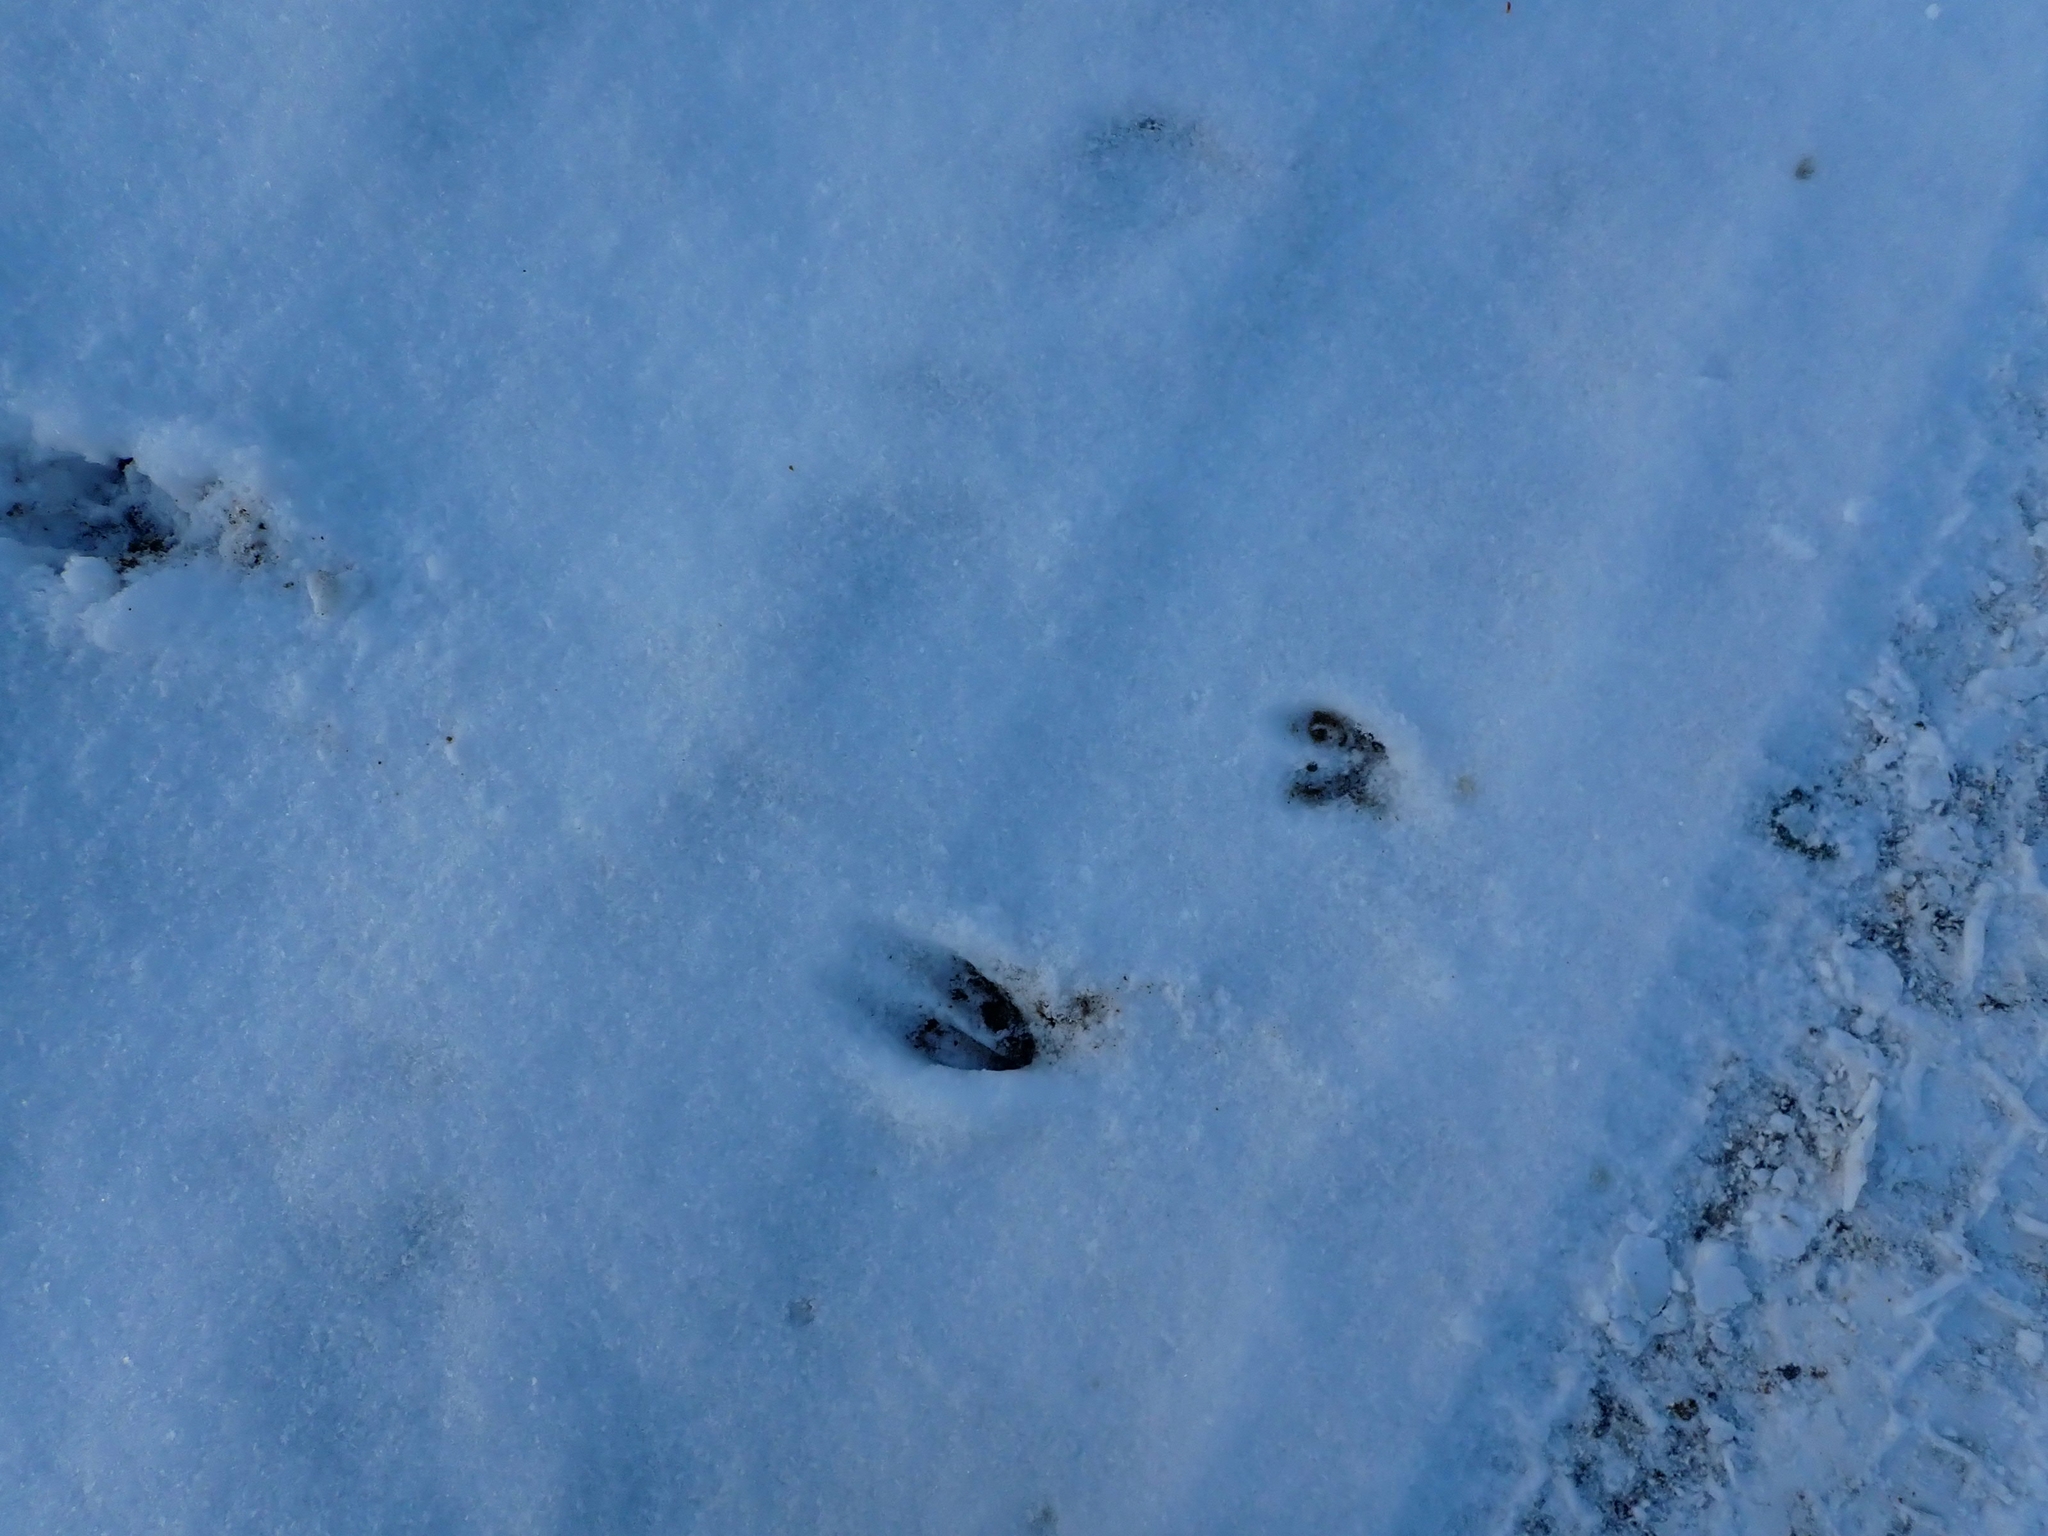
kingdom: Animalia
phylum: Chordata
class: Mammalia
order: Artiodactyla
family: Cervidae
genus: Odocoileus
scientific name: Odocoileus virginianus
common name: White-tailed deer
